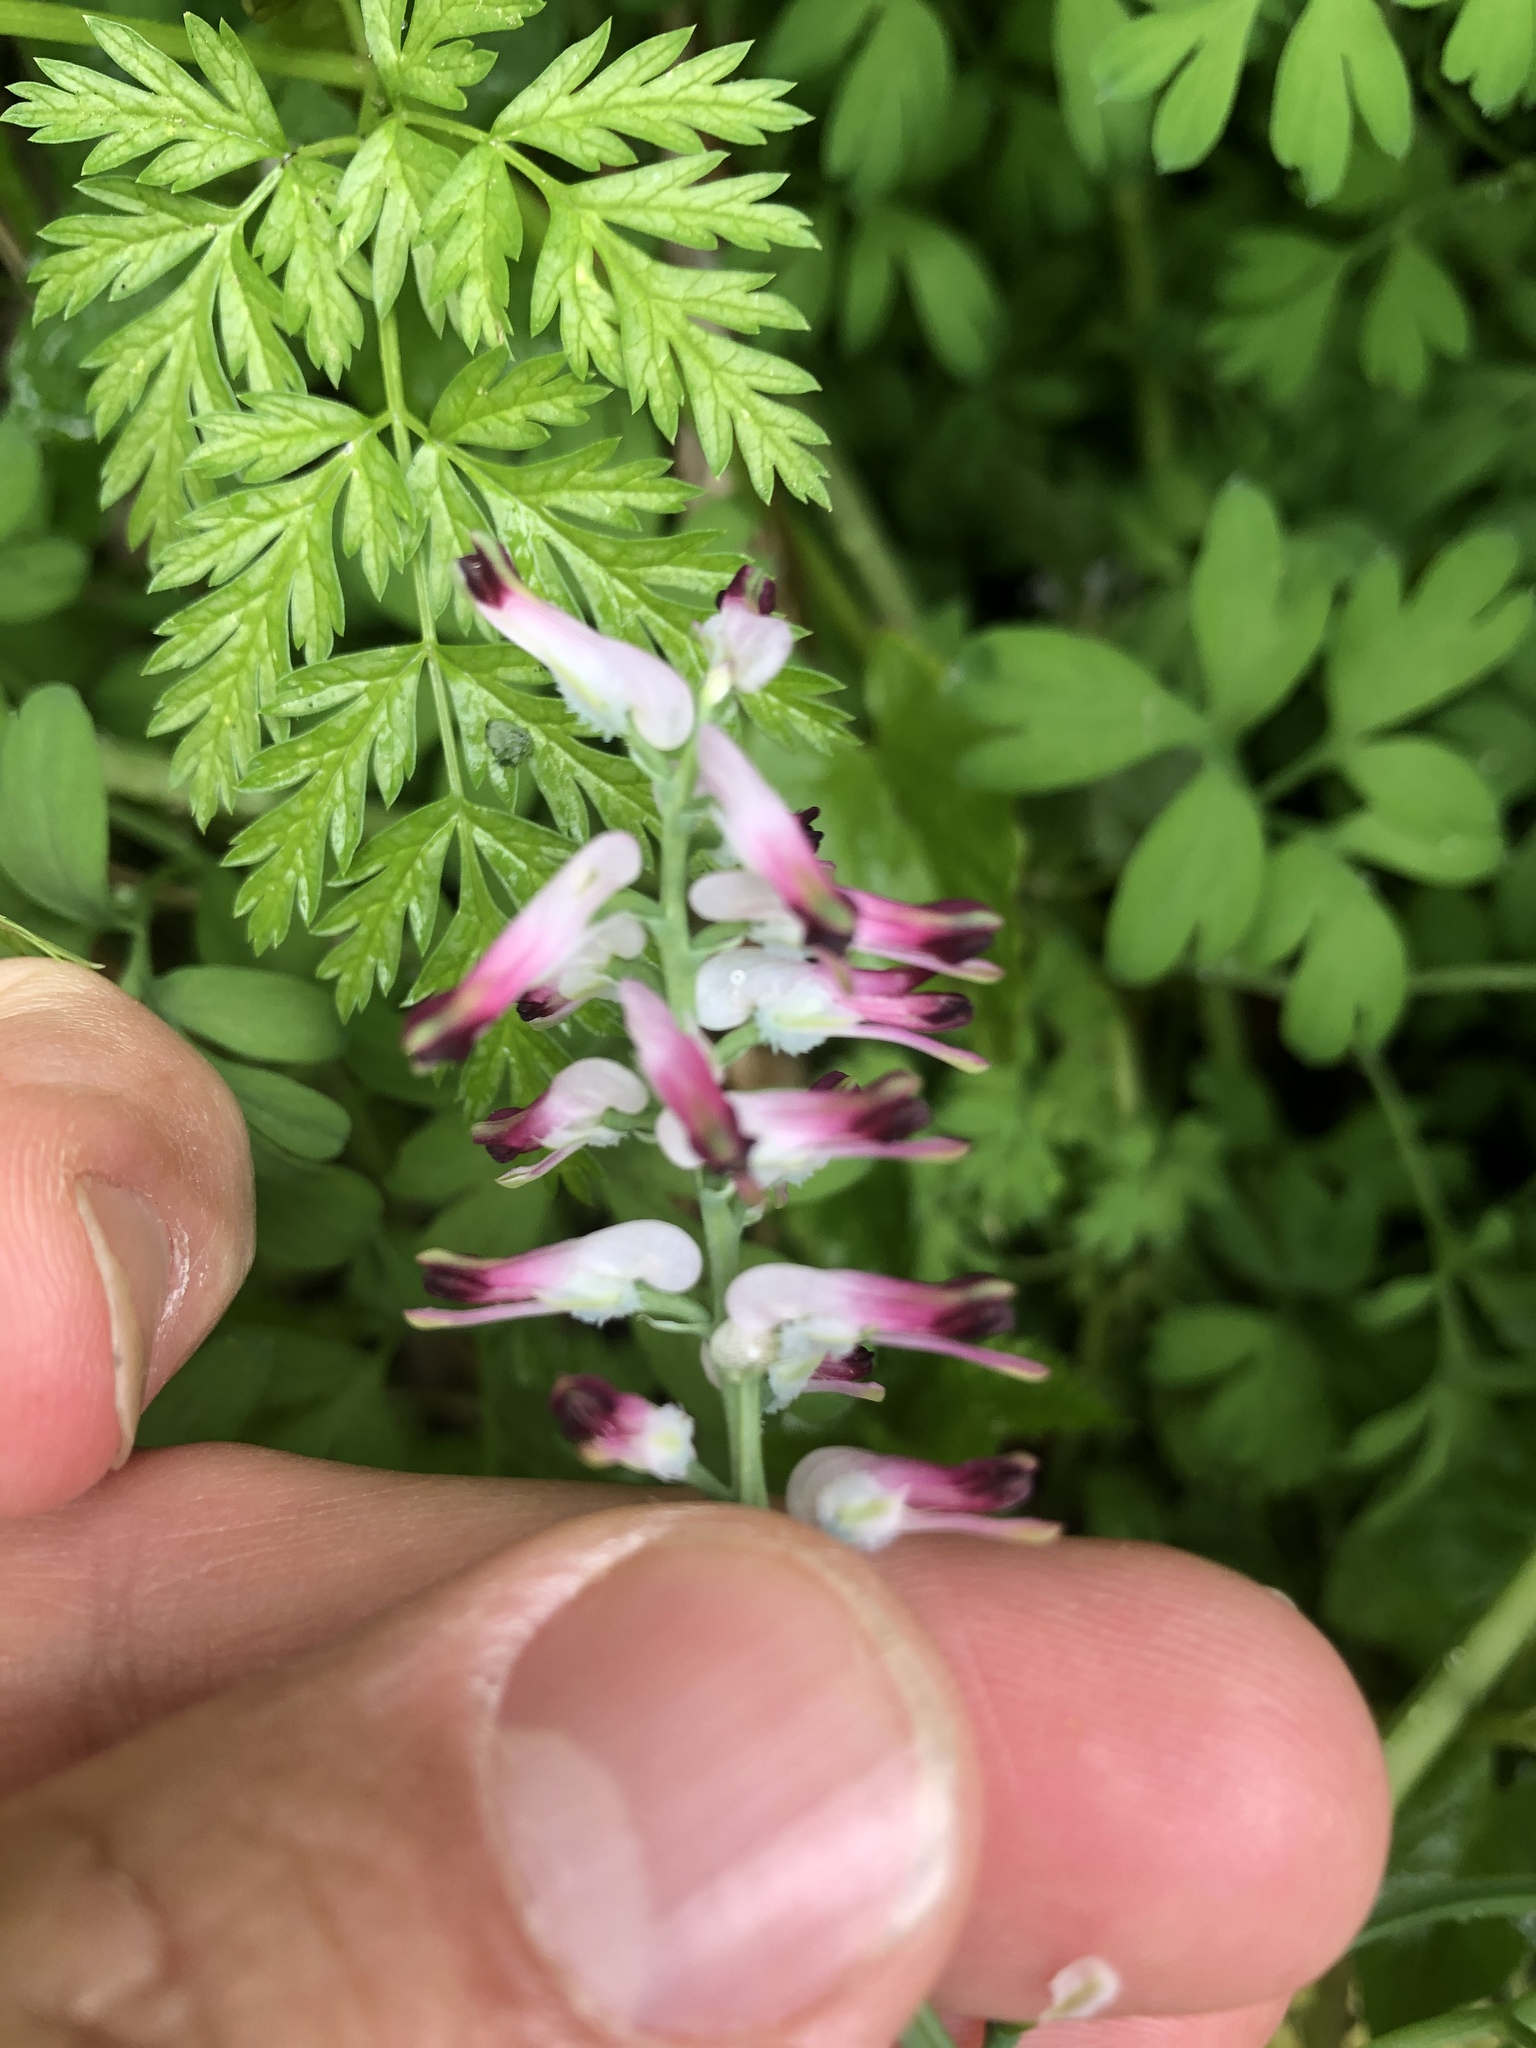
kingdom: Plantae
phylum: Tracheophyta
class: Magnoliopsida
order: Ranunculales
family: Papaveraceae
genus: Fumaria
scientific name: Fumaria muralis
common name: Common ramping-fumitory
